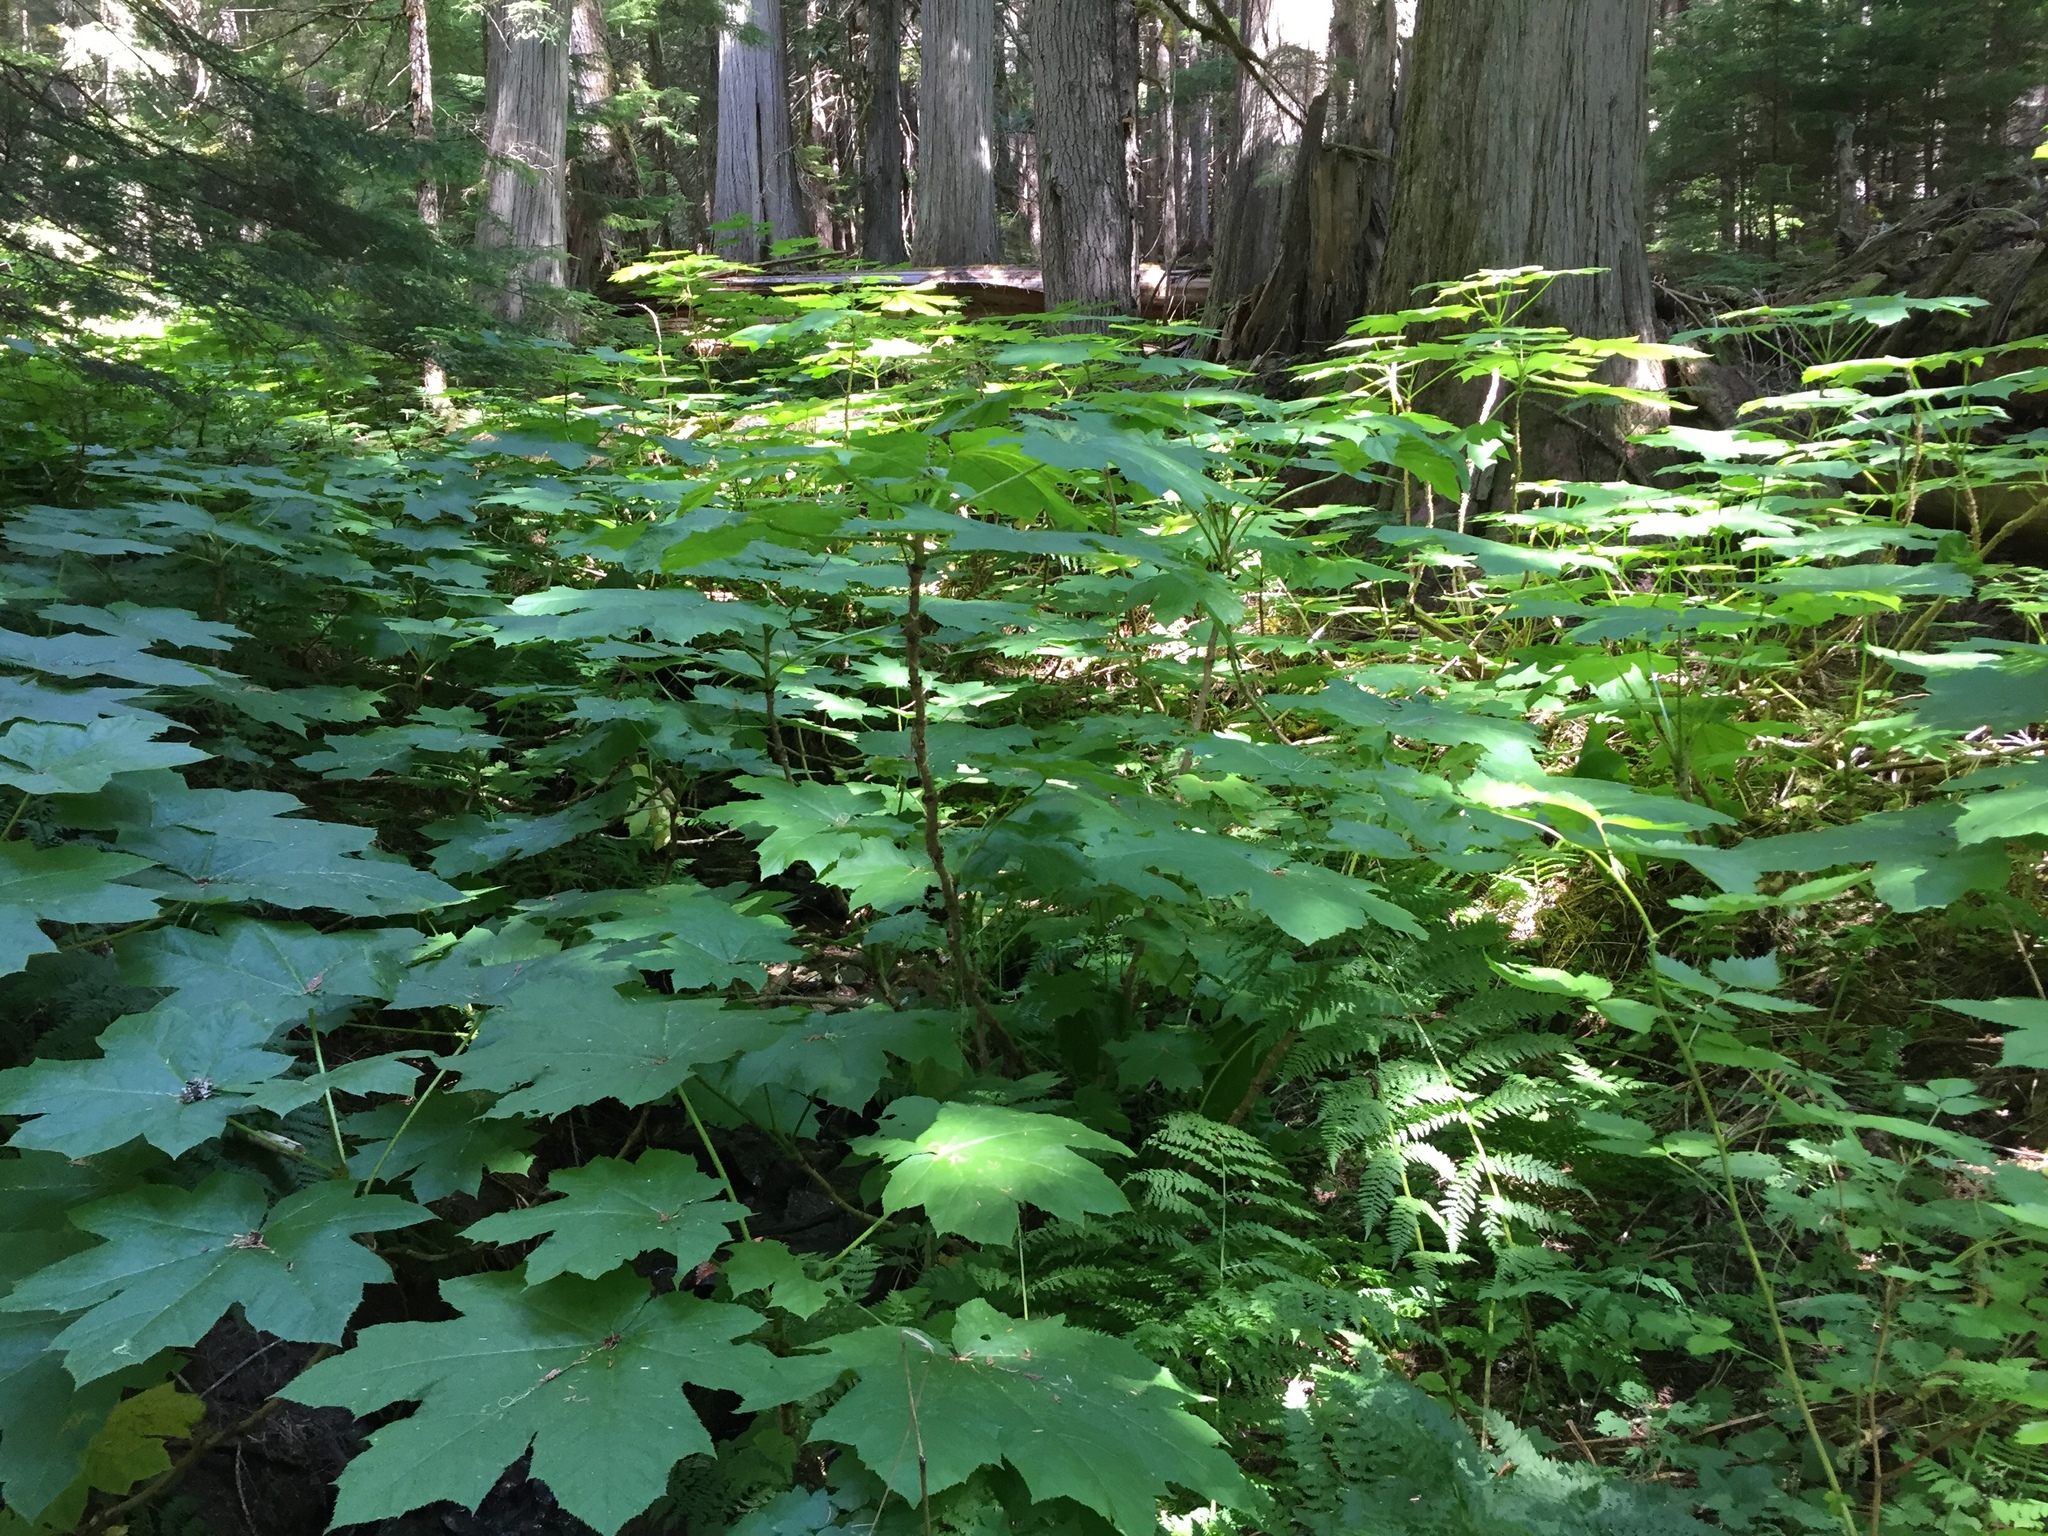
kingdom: Plantae
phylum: Tracheophyta
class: Magnoliopsida
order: Apiales
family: Araliaceae
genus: Oplopanax
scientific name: Oplopanax horridus
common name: Devil's walking-stick
